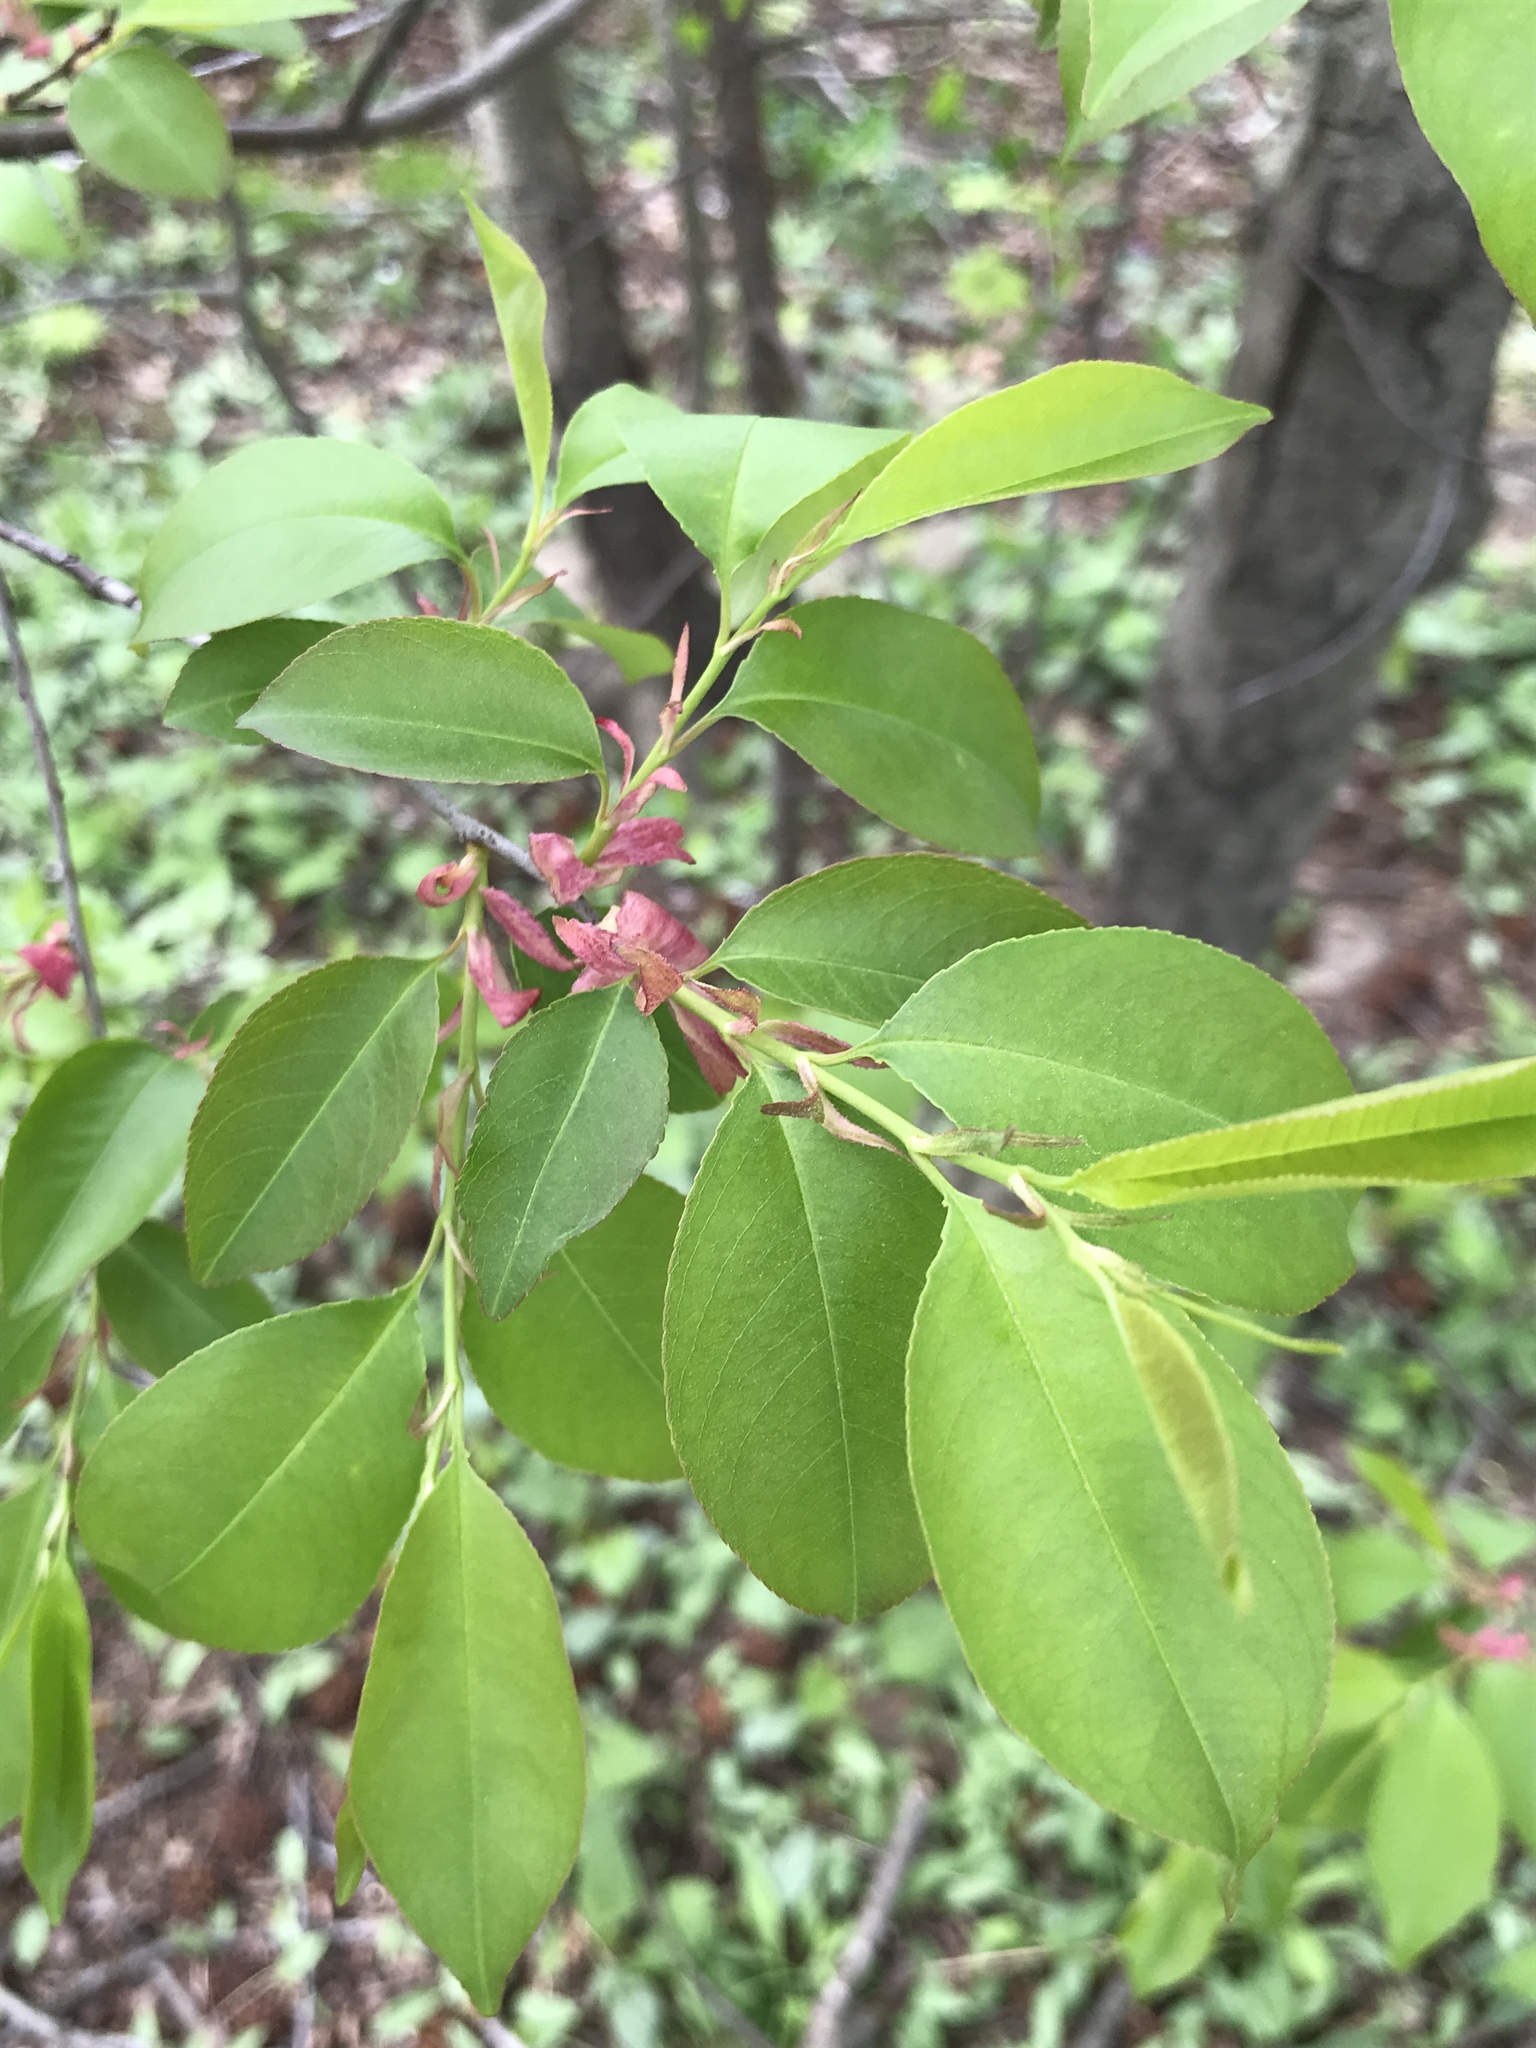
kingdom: Plantae
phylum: Tracheophyta
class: Magnoliopsida
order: Rosales
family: Rosaceae
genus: Prunus
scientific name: Prunus serotina
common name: Black cherry
